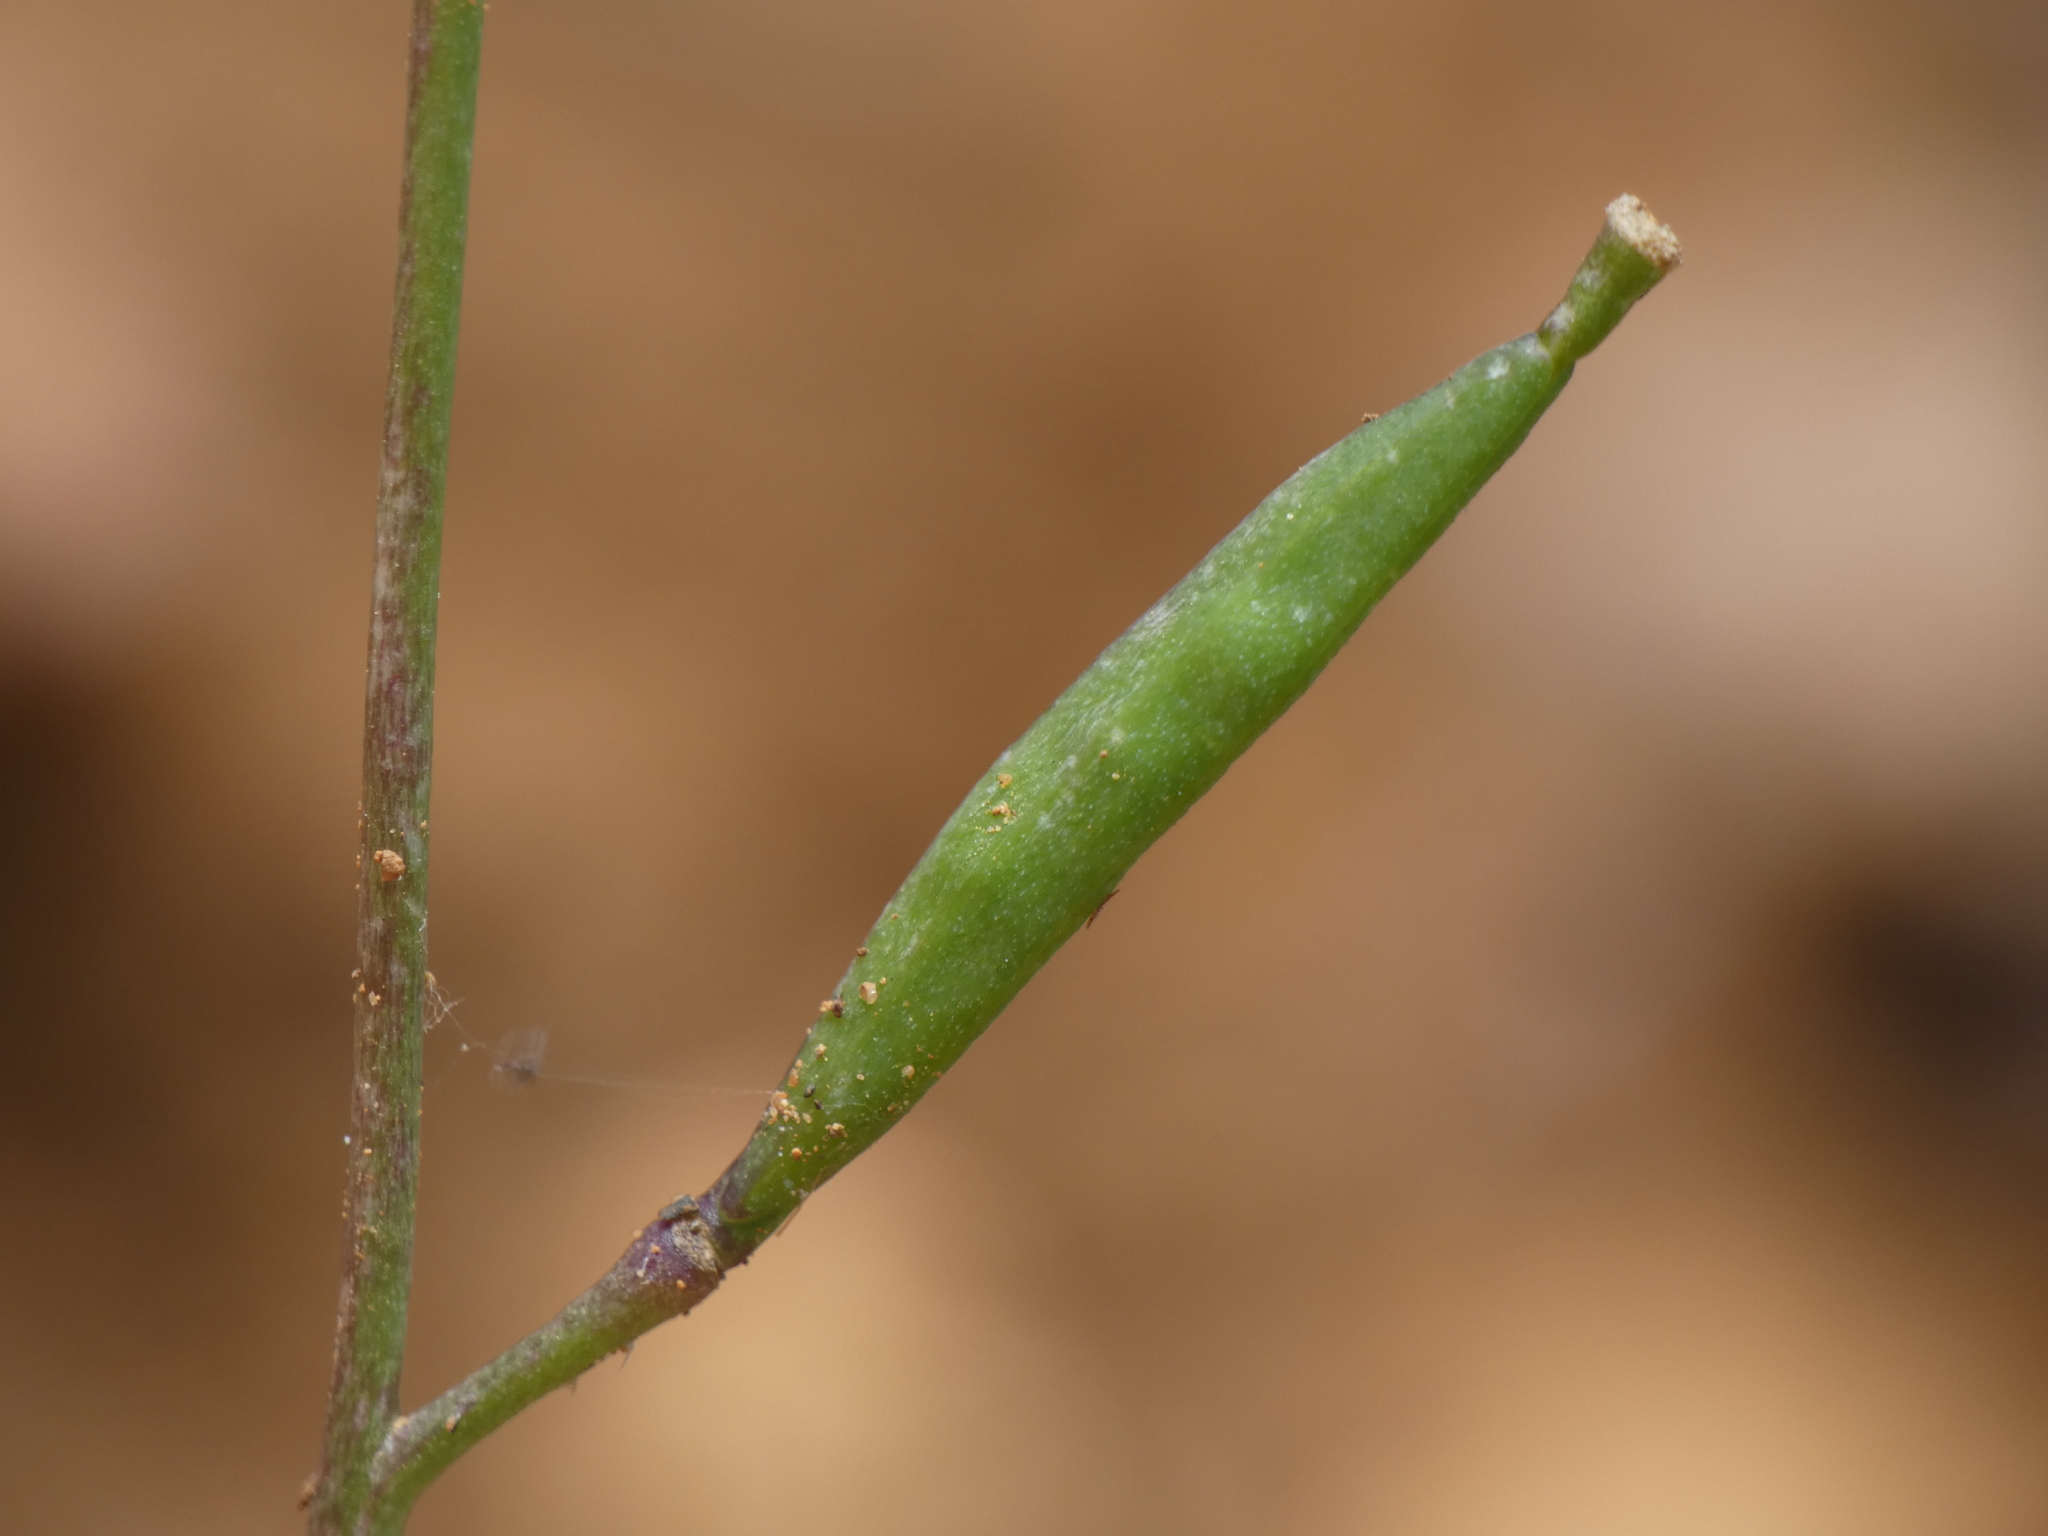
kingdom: Plantae
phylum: Tracheophyta
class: Magnoliopsida
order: Brassicales
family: Brassicaceae
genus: Diplotaxis
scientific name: Diplotaxis muralis
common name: Annual wall-rocket
